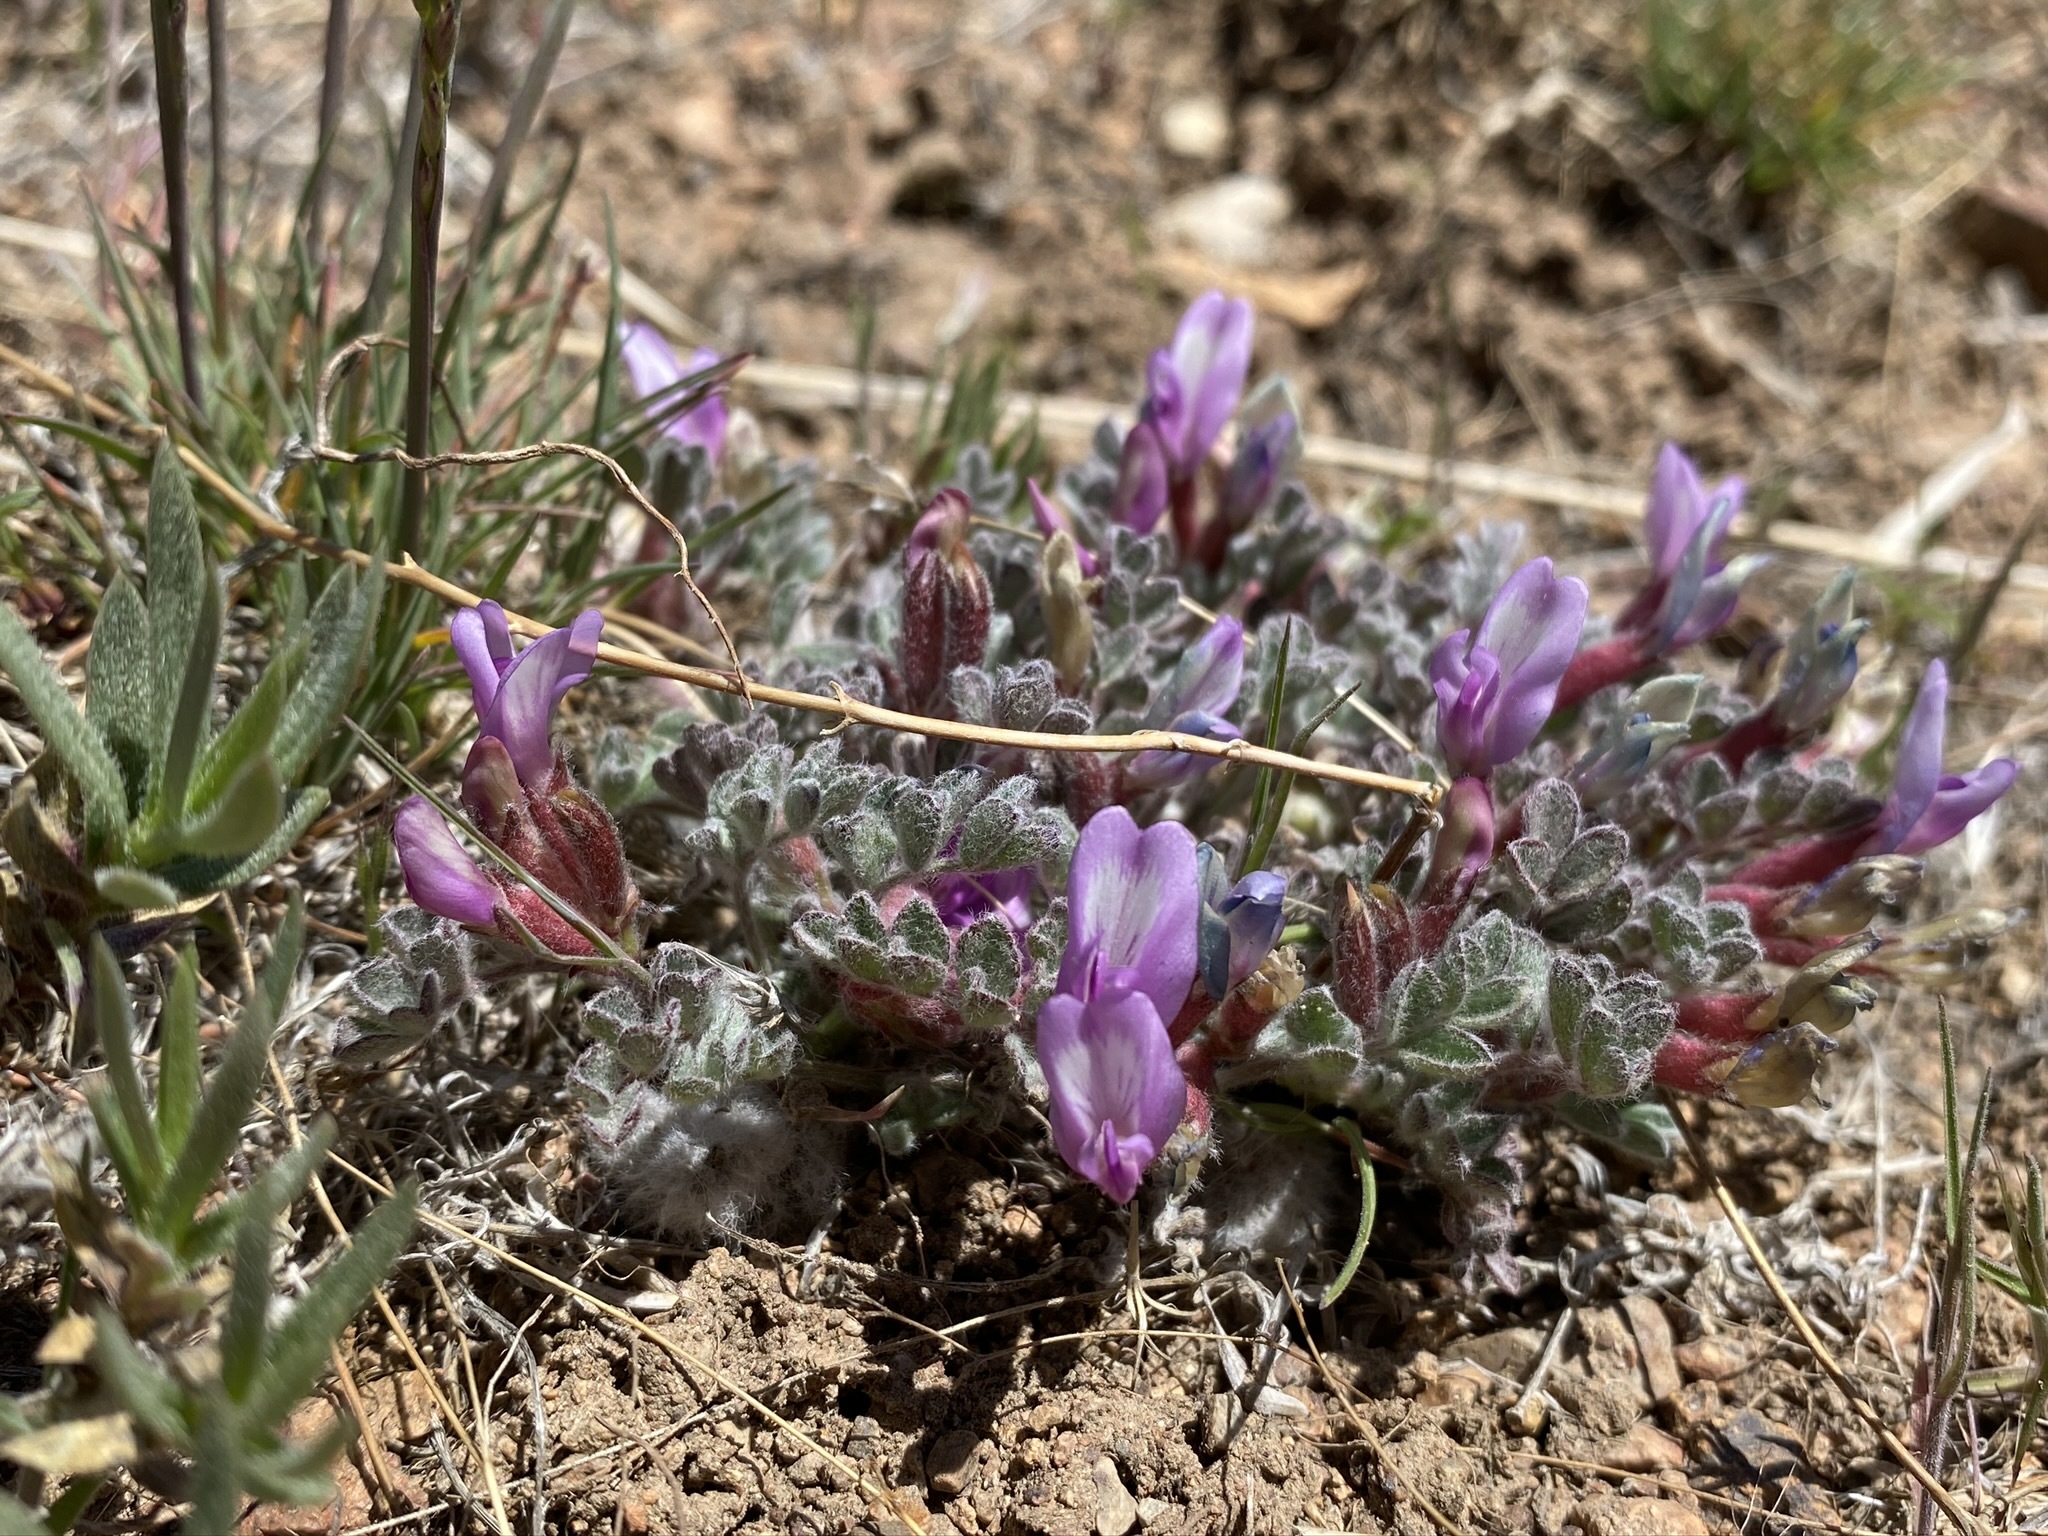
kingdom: Plantae
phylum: Tracheophyta
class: Magnoliopsida
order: Fabales
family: Fabaceae
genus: Astragalus
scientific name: Astragalus purshii
